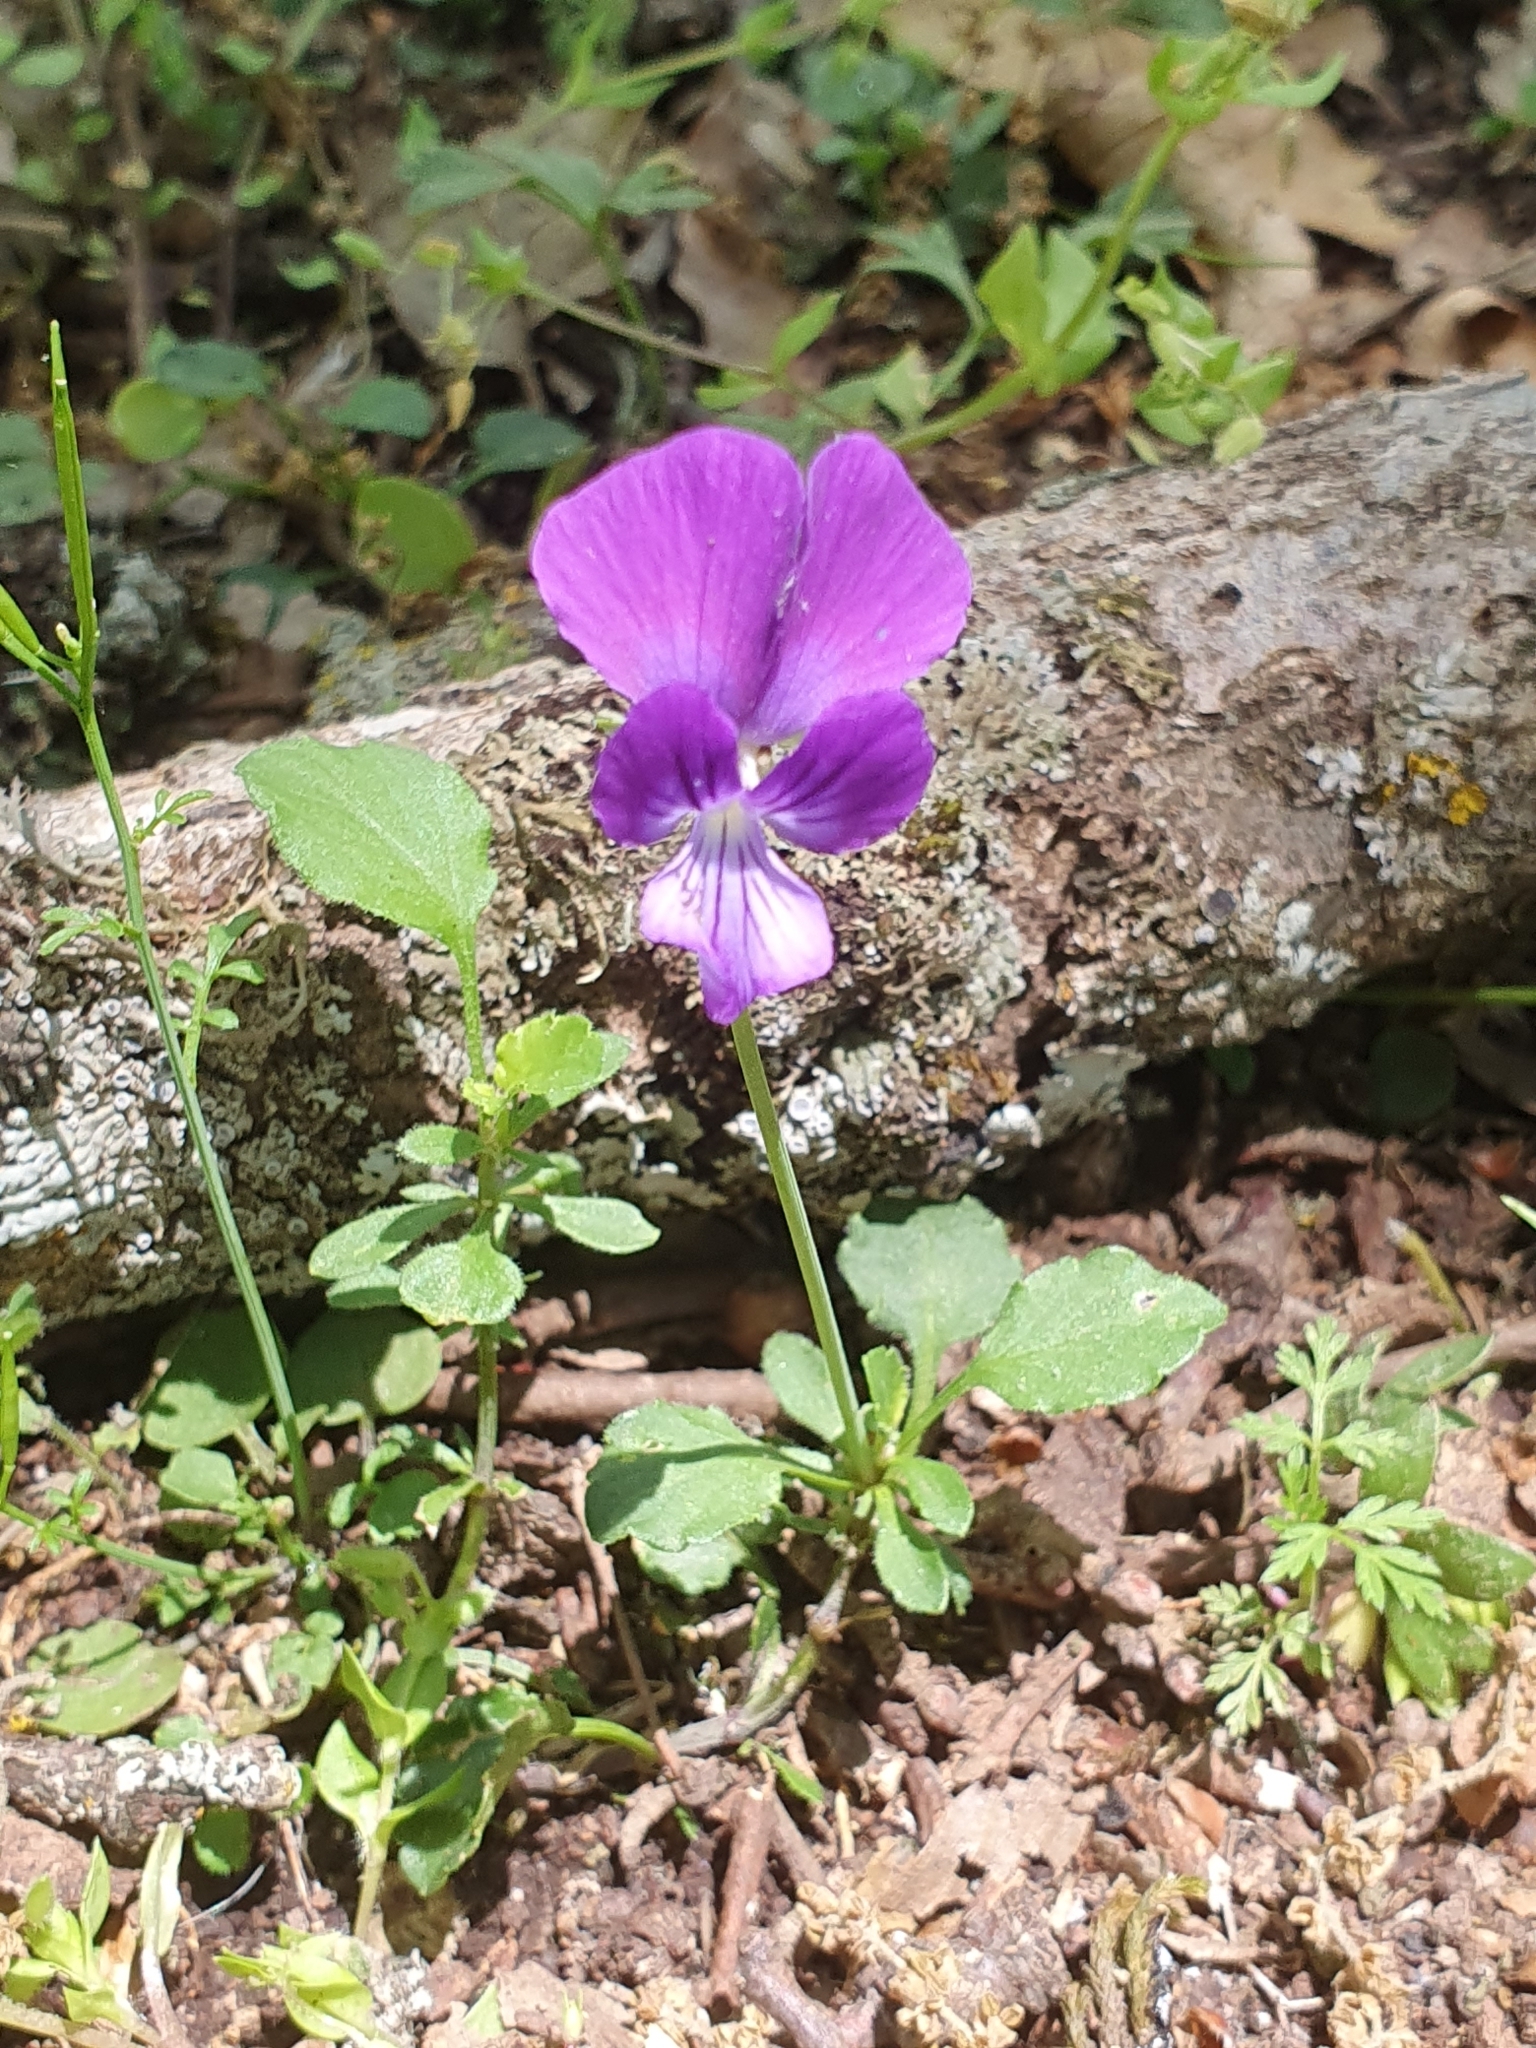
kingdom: Plantae
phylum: Tracheophyta
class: Magnoliopsida
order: Malpighiales
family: Violaceae
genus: Viola
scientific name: Viola munbyana
